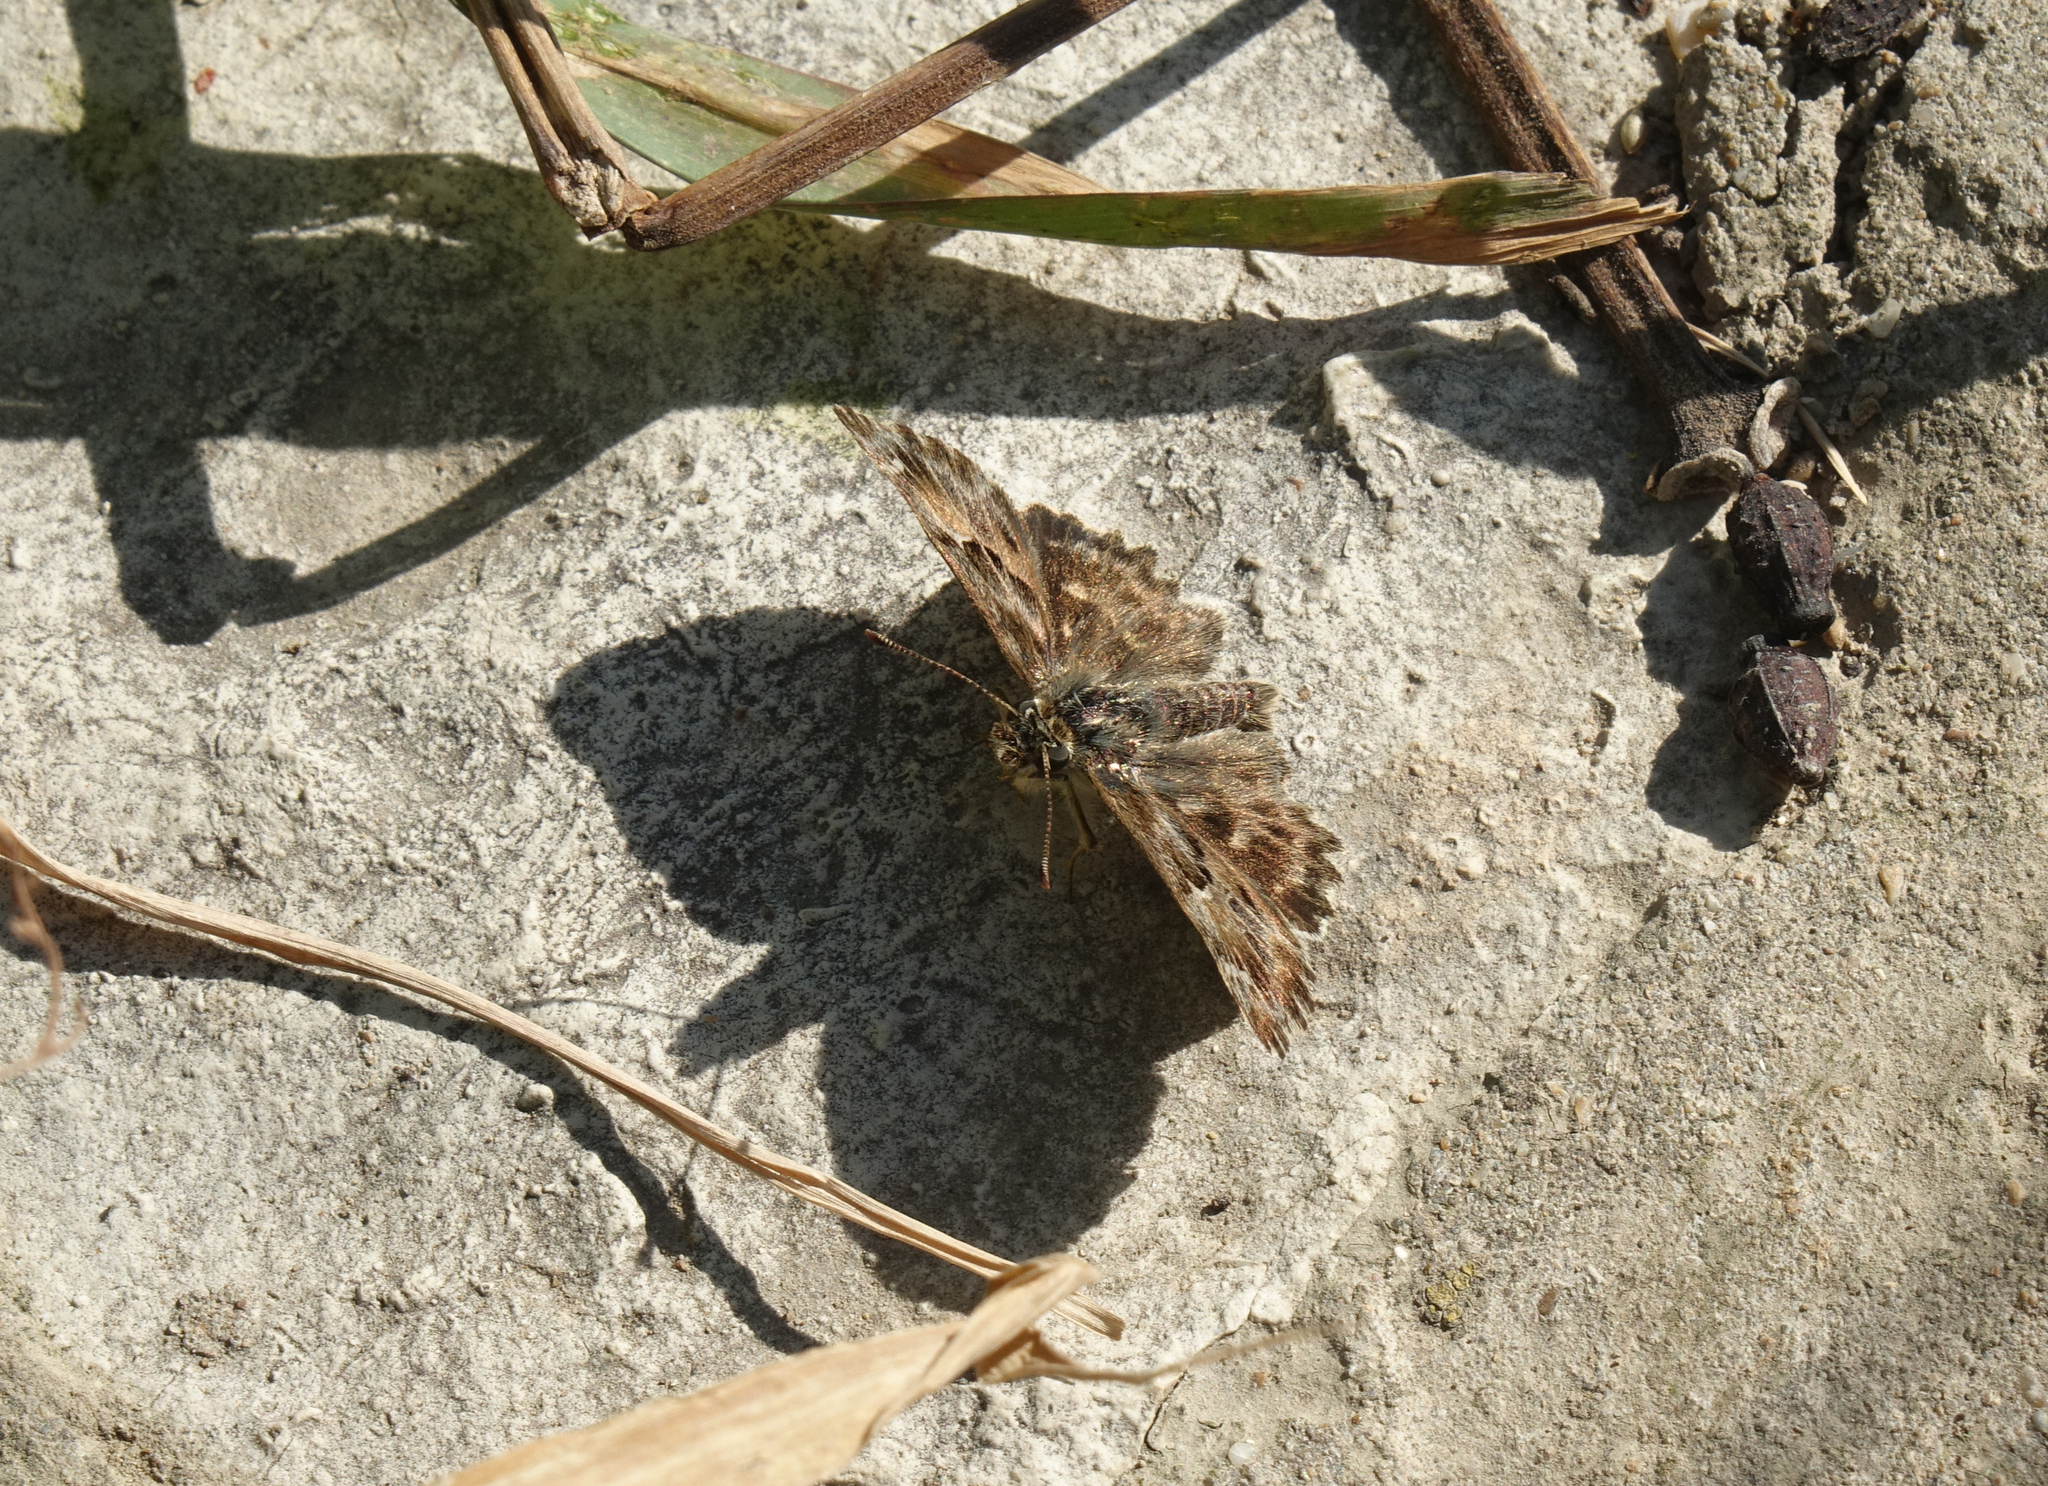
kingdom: Animalia
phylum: Arthropoda
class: Insecta
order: Lepidoptera
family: Hesperiidae
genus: Carcharodus
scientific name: Carcharodus alceae
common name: Mallow skipper
